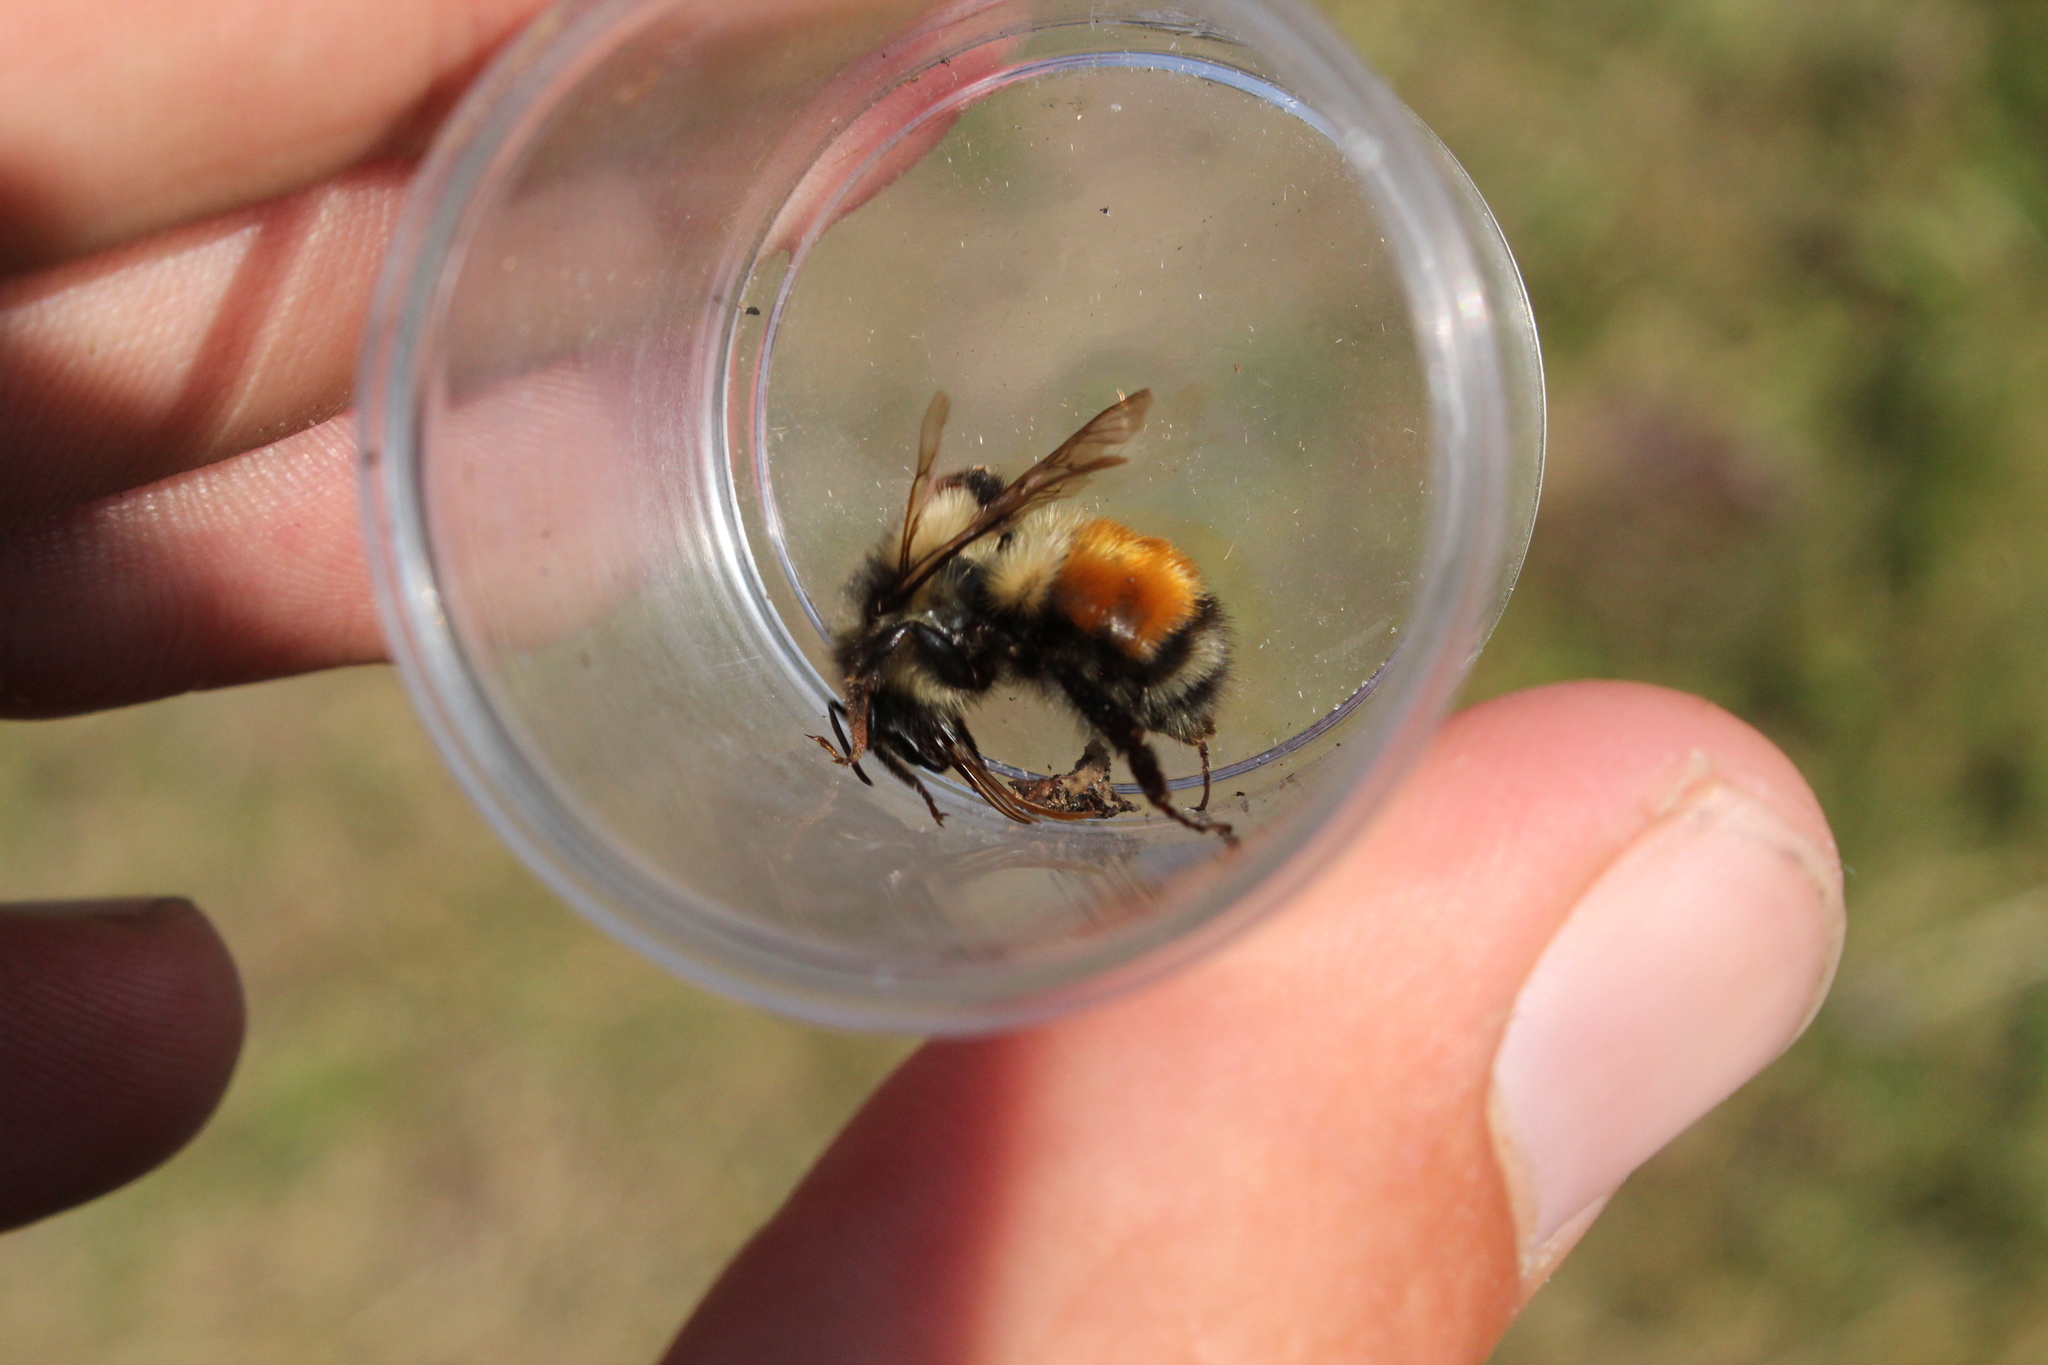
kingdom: Animalia
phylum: Arthropoda
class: Insecta
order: Hymenoptera
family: Apidae
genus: Bombus
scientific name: Bombus ternarius
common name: Tri-colored bumble bee
